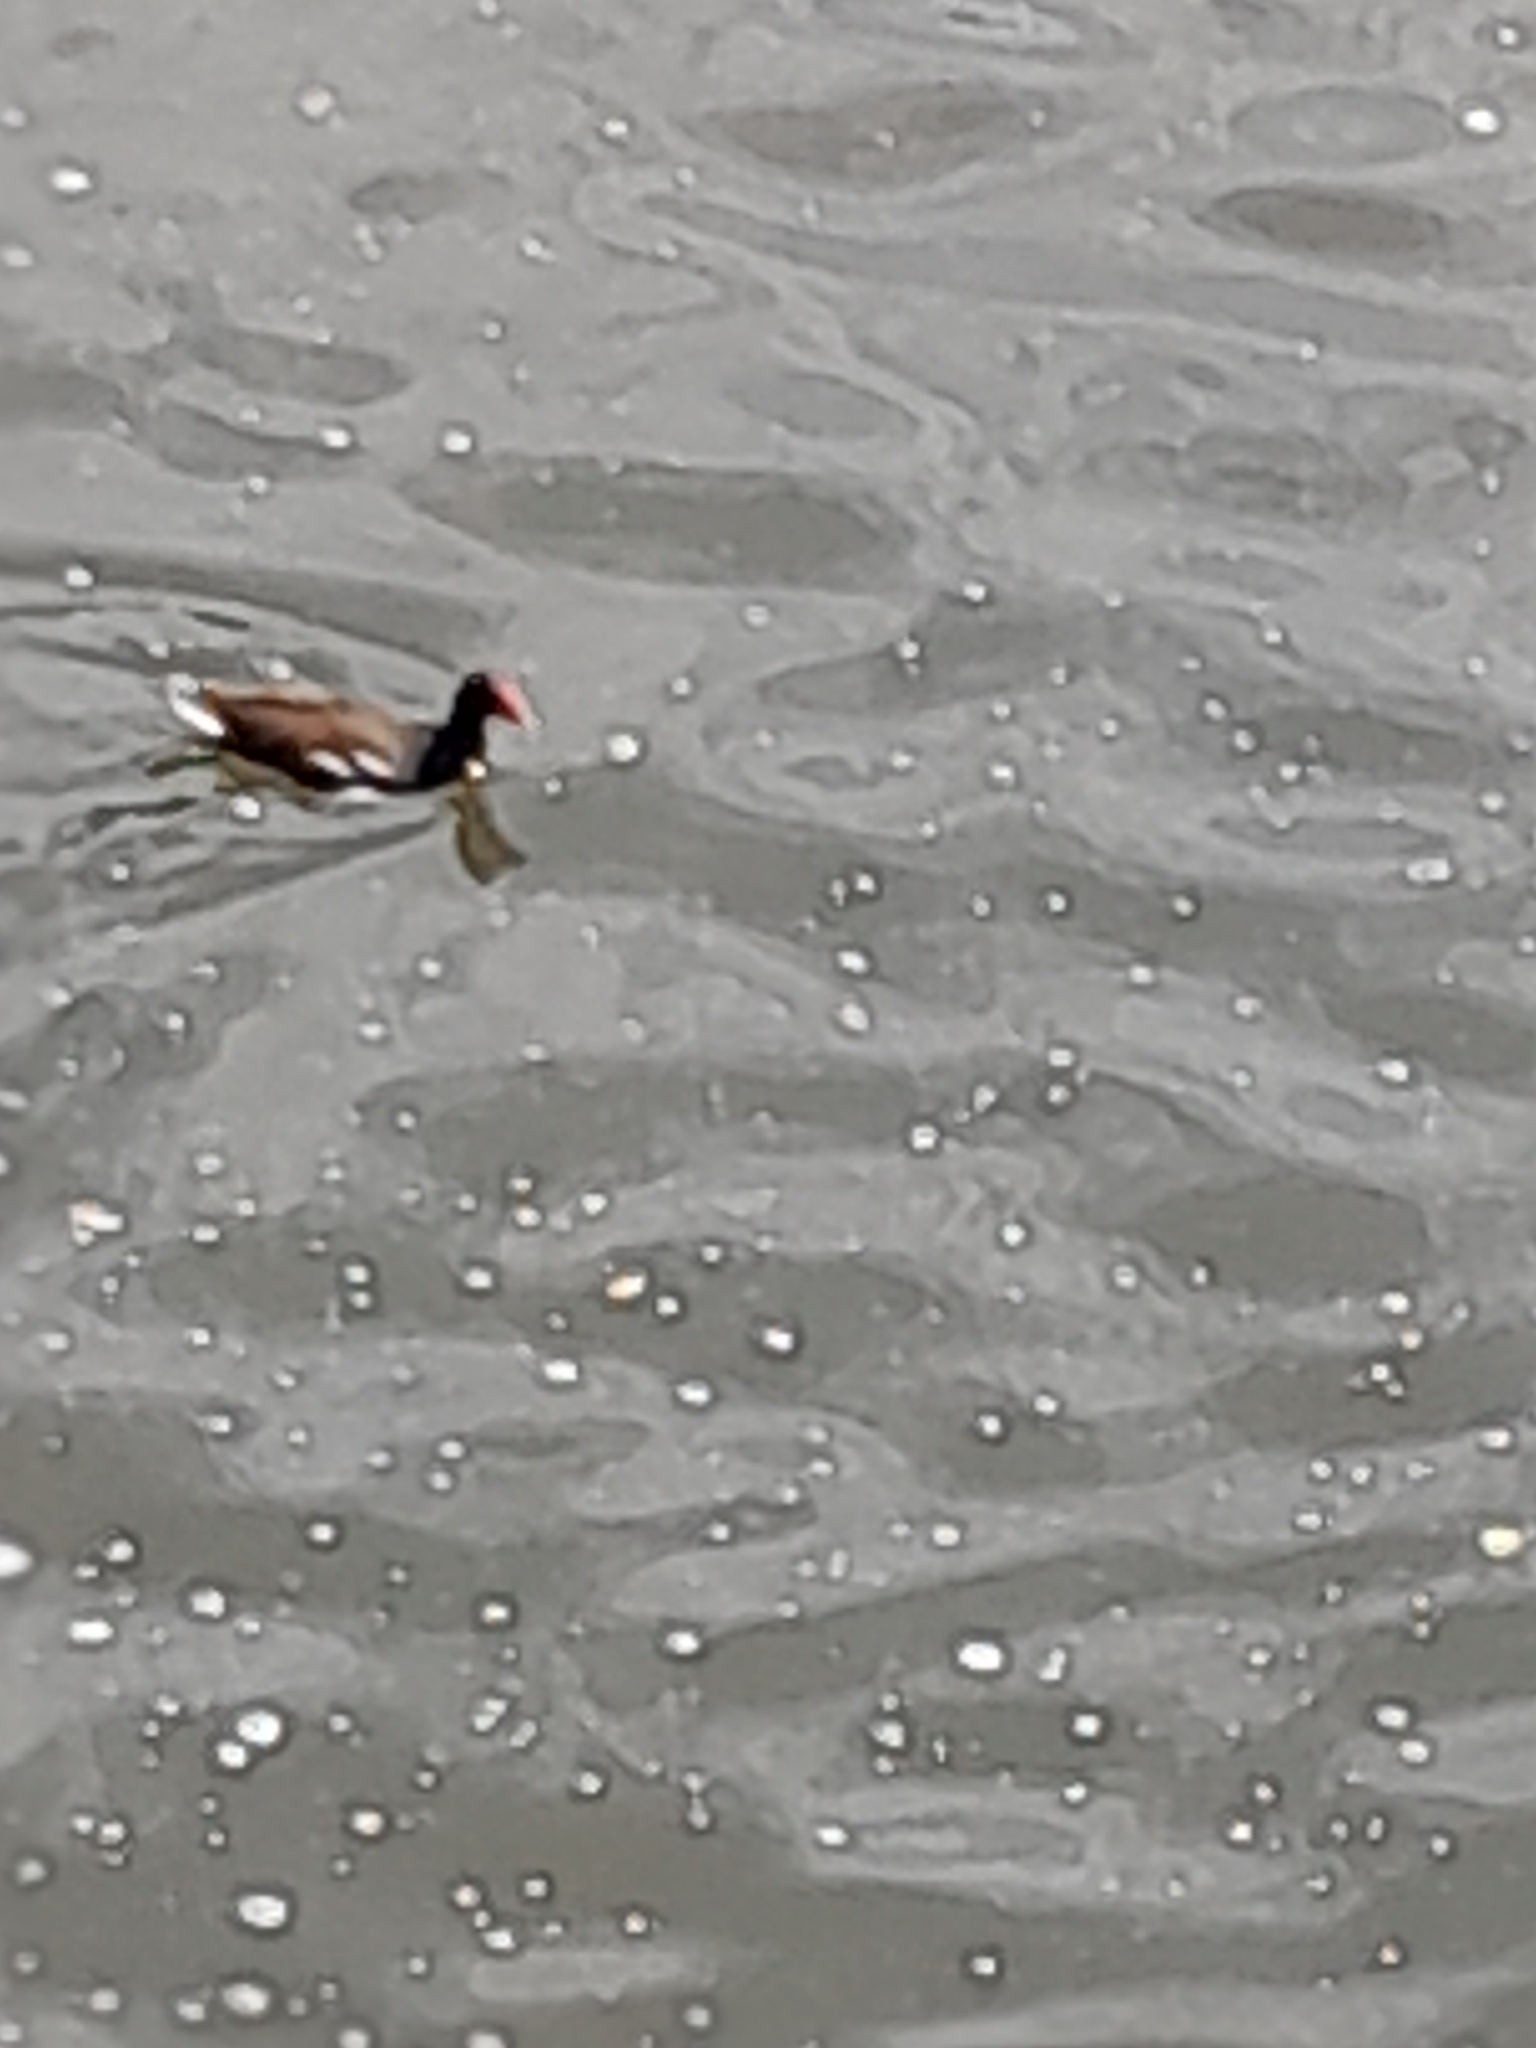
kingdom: Animalia
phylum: Chordata
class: Aves
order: Gruiformes
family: Rallidae
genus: Gallinula
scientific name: Gallinula chloropus
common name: Common moorhen
